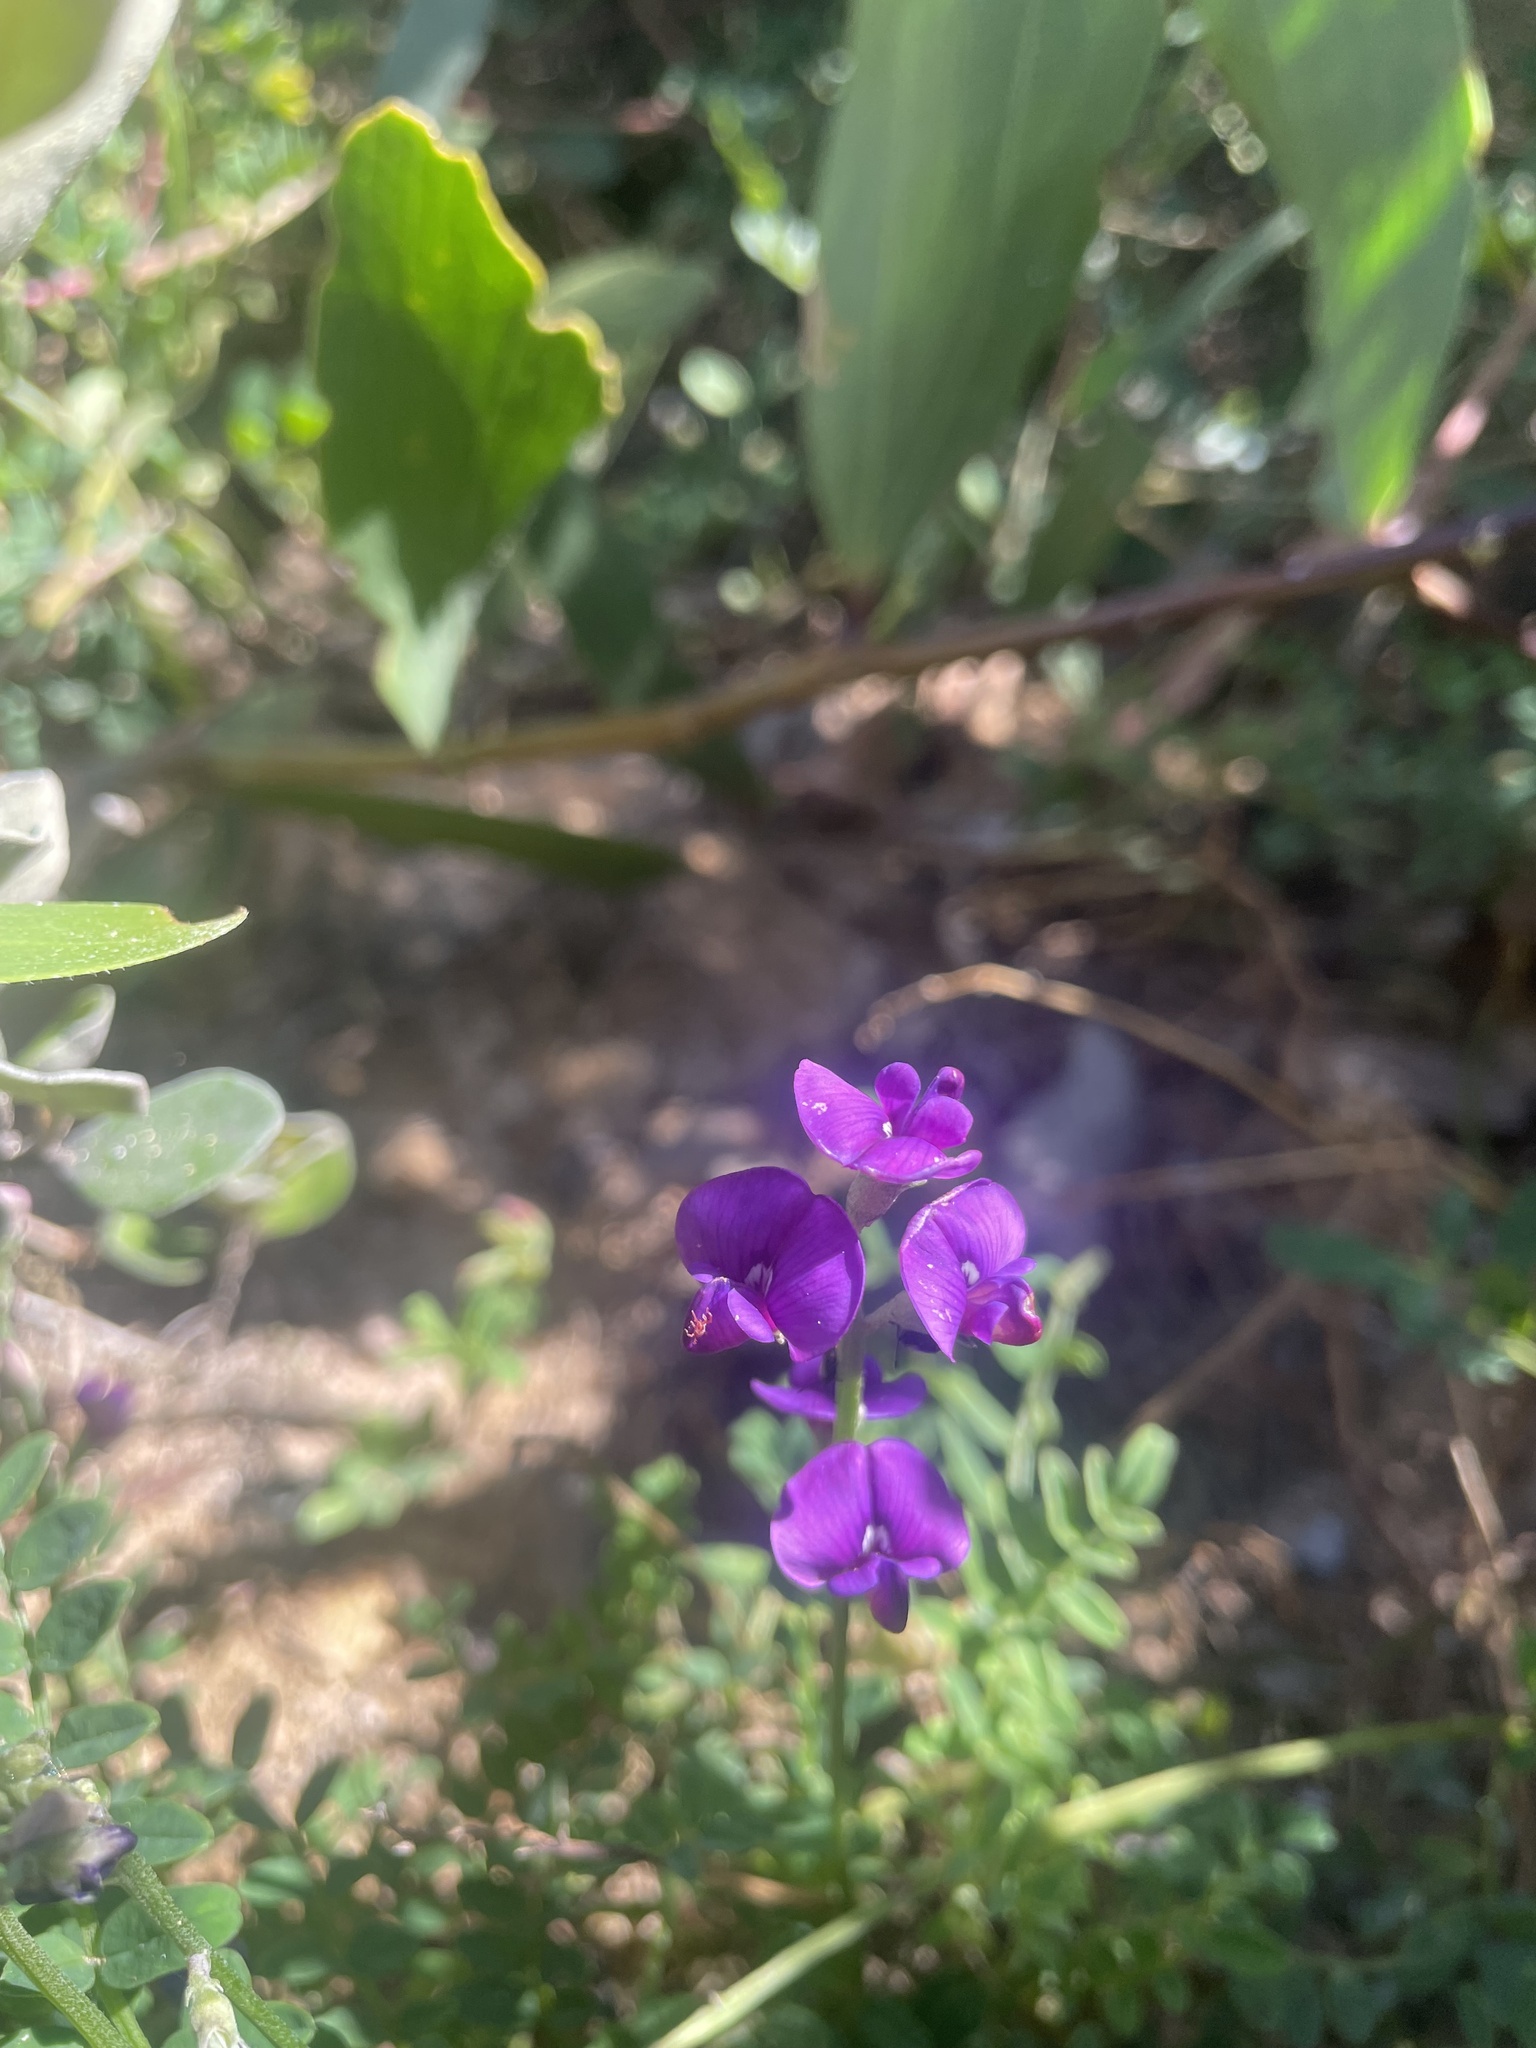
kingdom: Plantae
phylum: Tracheophyta
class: Magnoliopsida
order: Fabales
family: Fabaceae
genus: Swainsona
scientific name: Swainsona lessertiifolia
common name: Bog-pea
